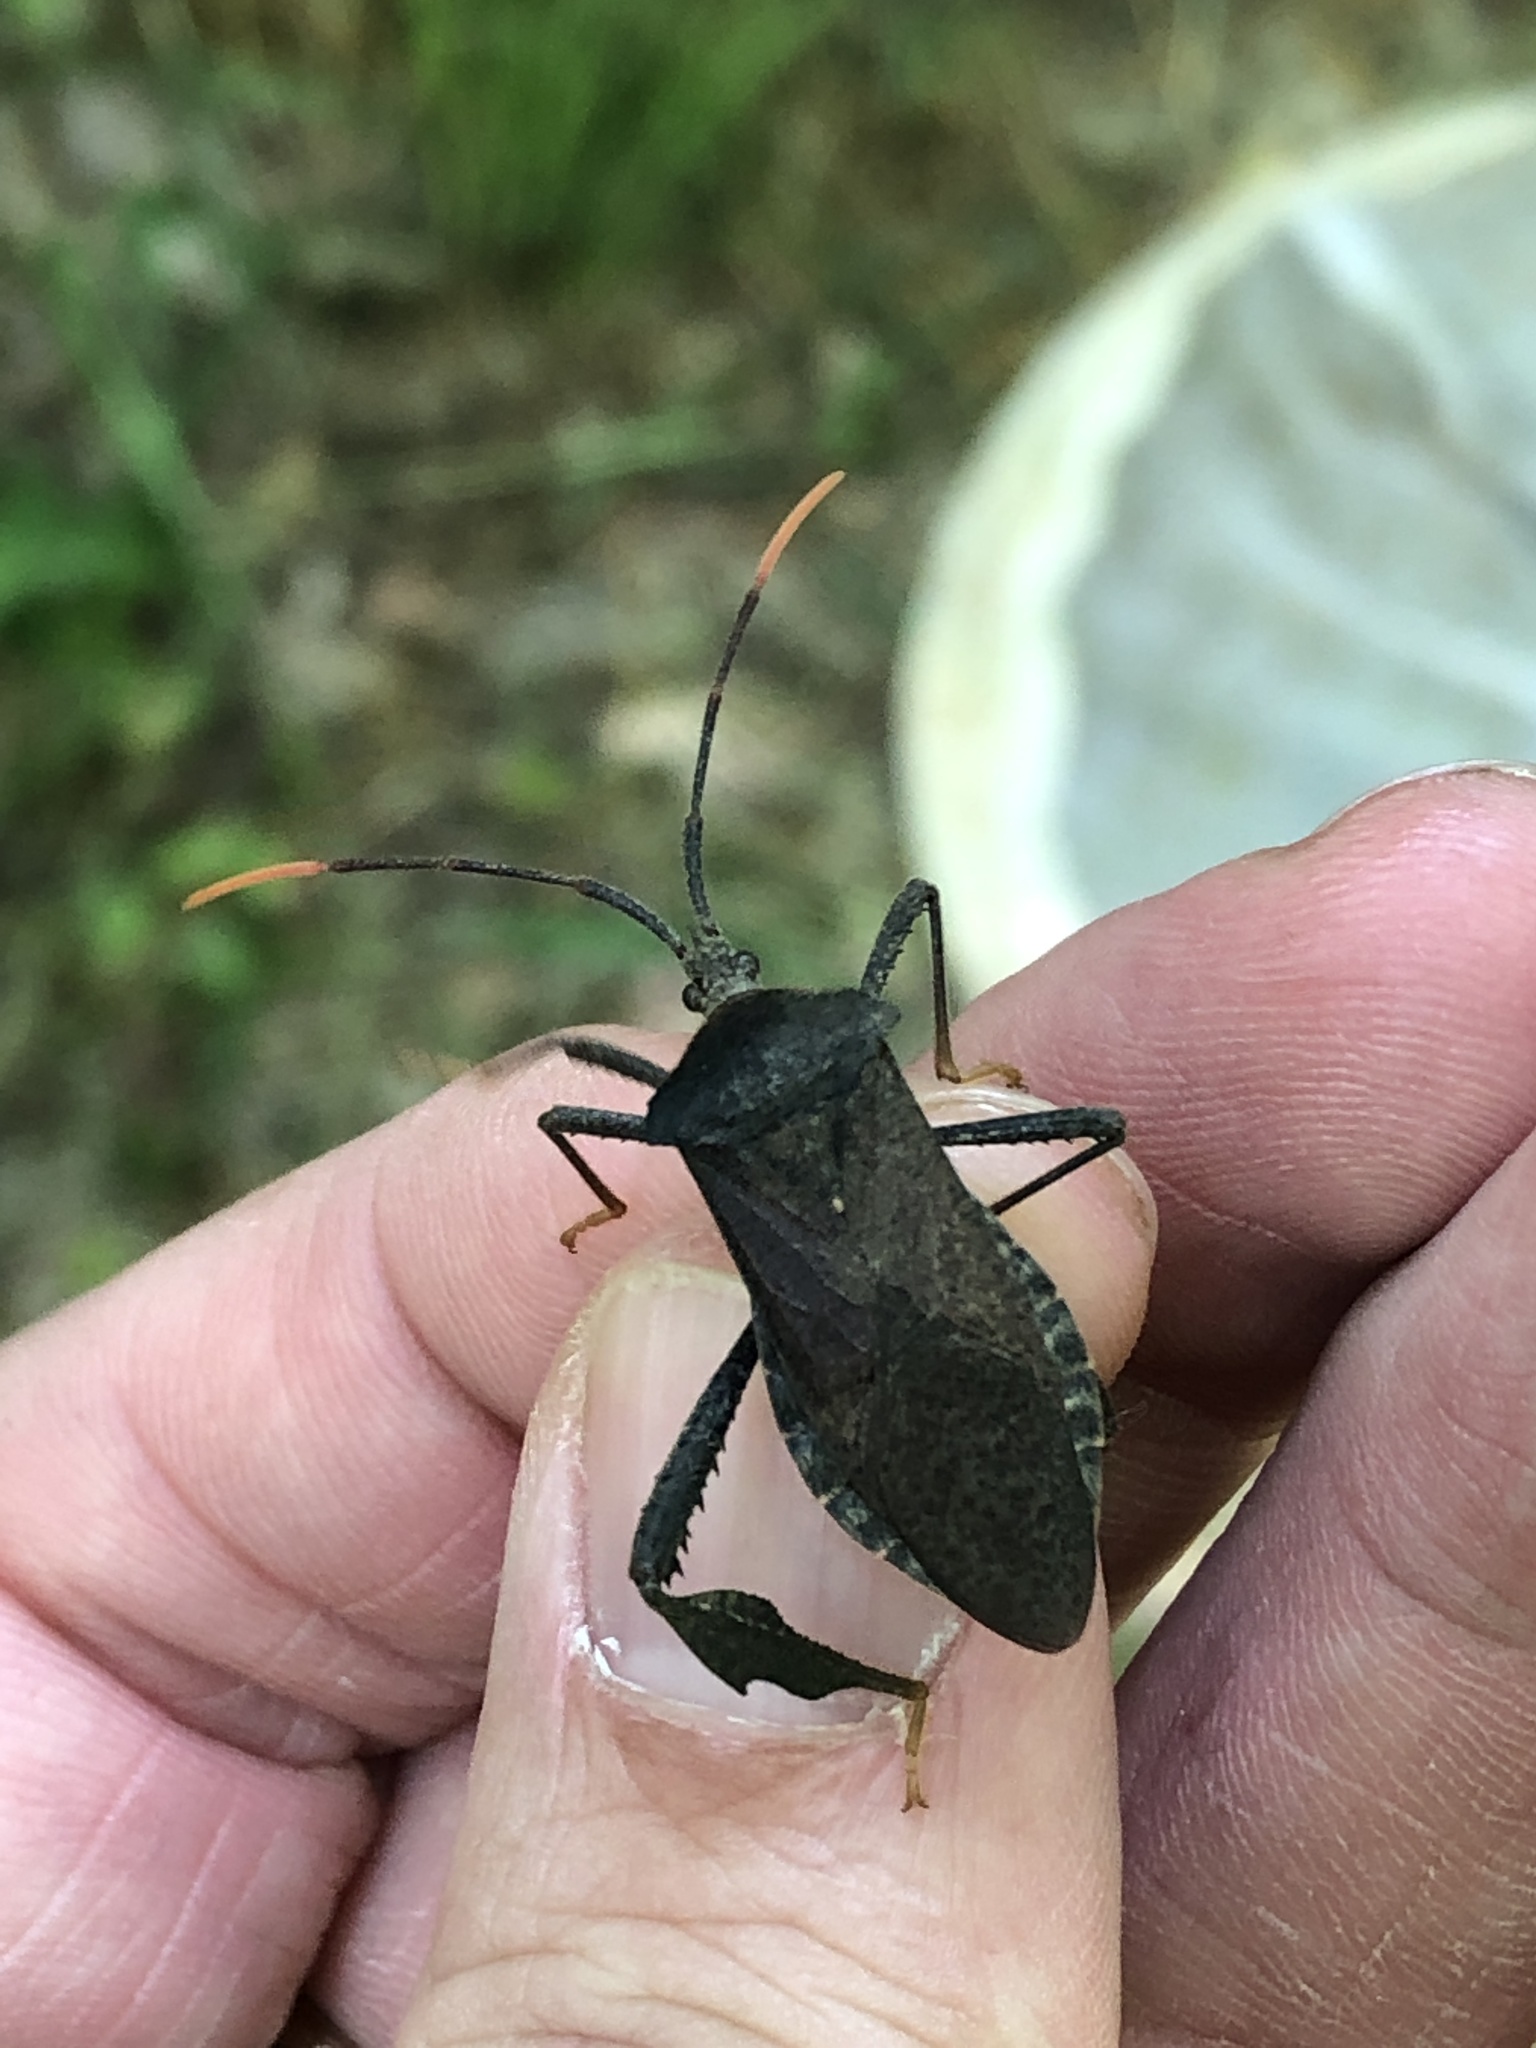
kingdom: Animalia
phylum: Arthropoda
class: Insecta
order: Hemiptera
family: Coreidae
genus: Acanthocephala
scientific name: Acanthocephala terminalis
